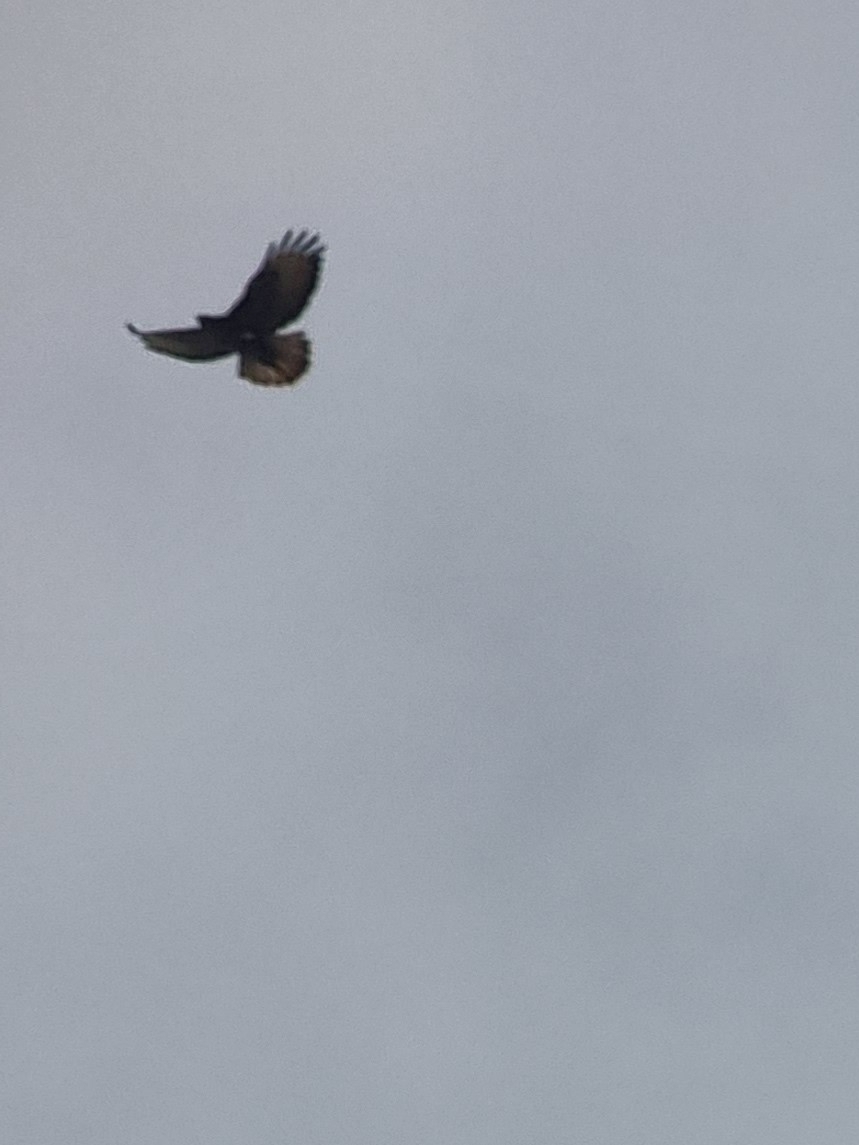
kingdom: Animalia
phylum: Chordata
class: Aves
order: Accipitriformes
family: Accipitridae
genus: Buteo
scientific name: Buteo buteo
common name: Common buzzard
